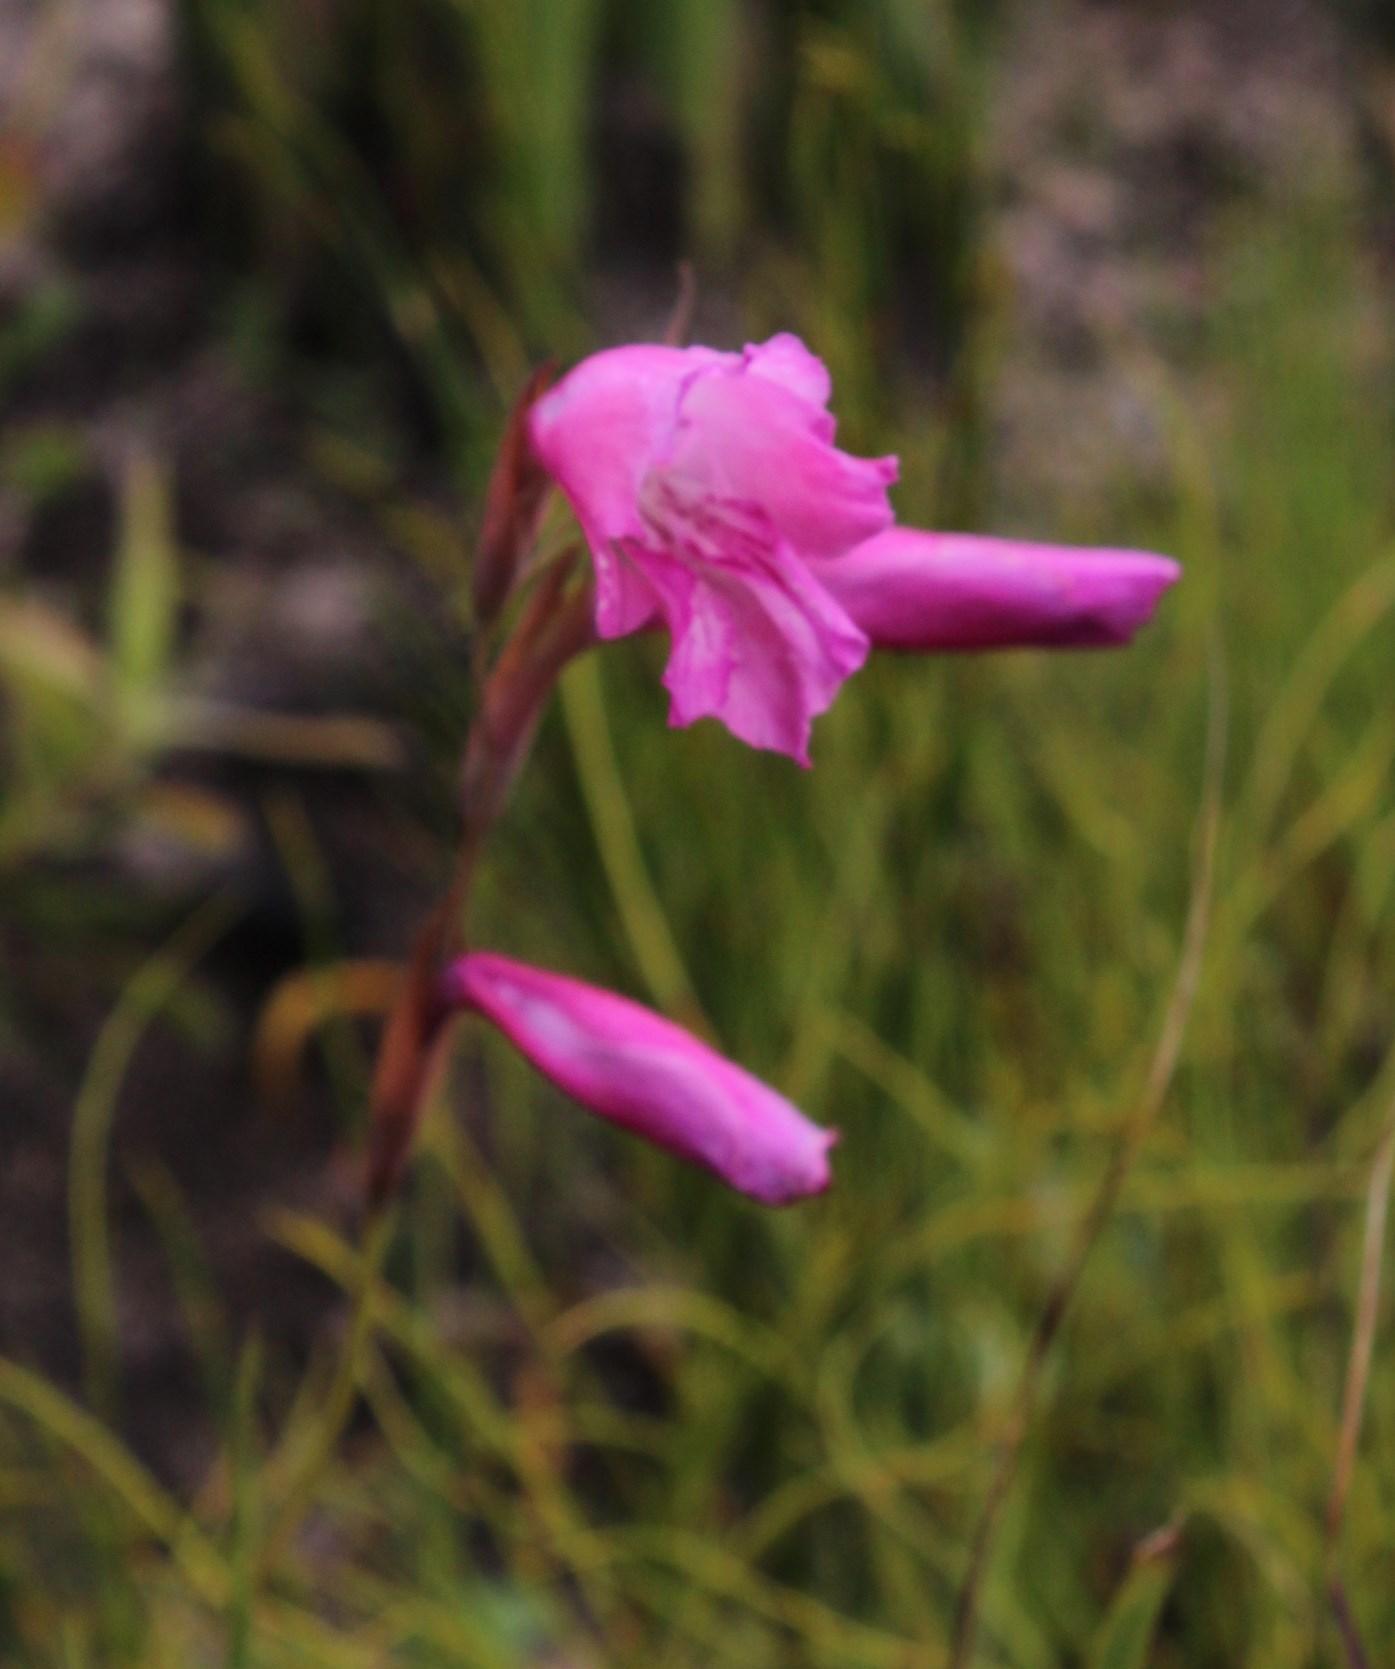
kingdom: Plantae
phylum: Tracheophyta
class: Liliopsida
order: Asparagales
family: Iridaceae
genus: Gladiolus
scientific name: Gladiolus hirsutus
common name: Small pink afrikaner
